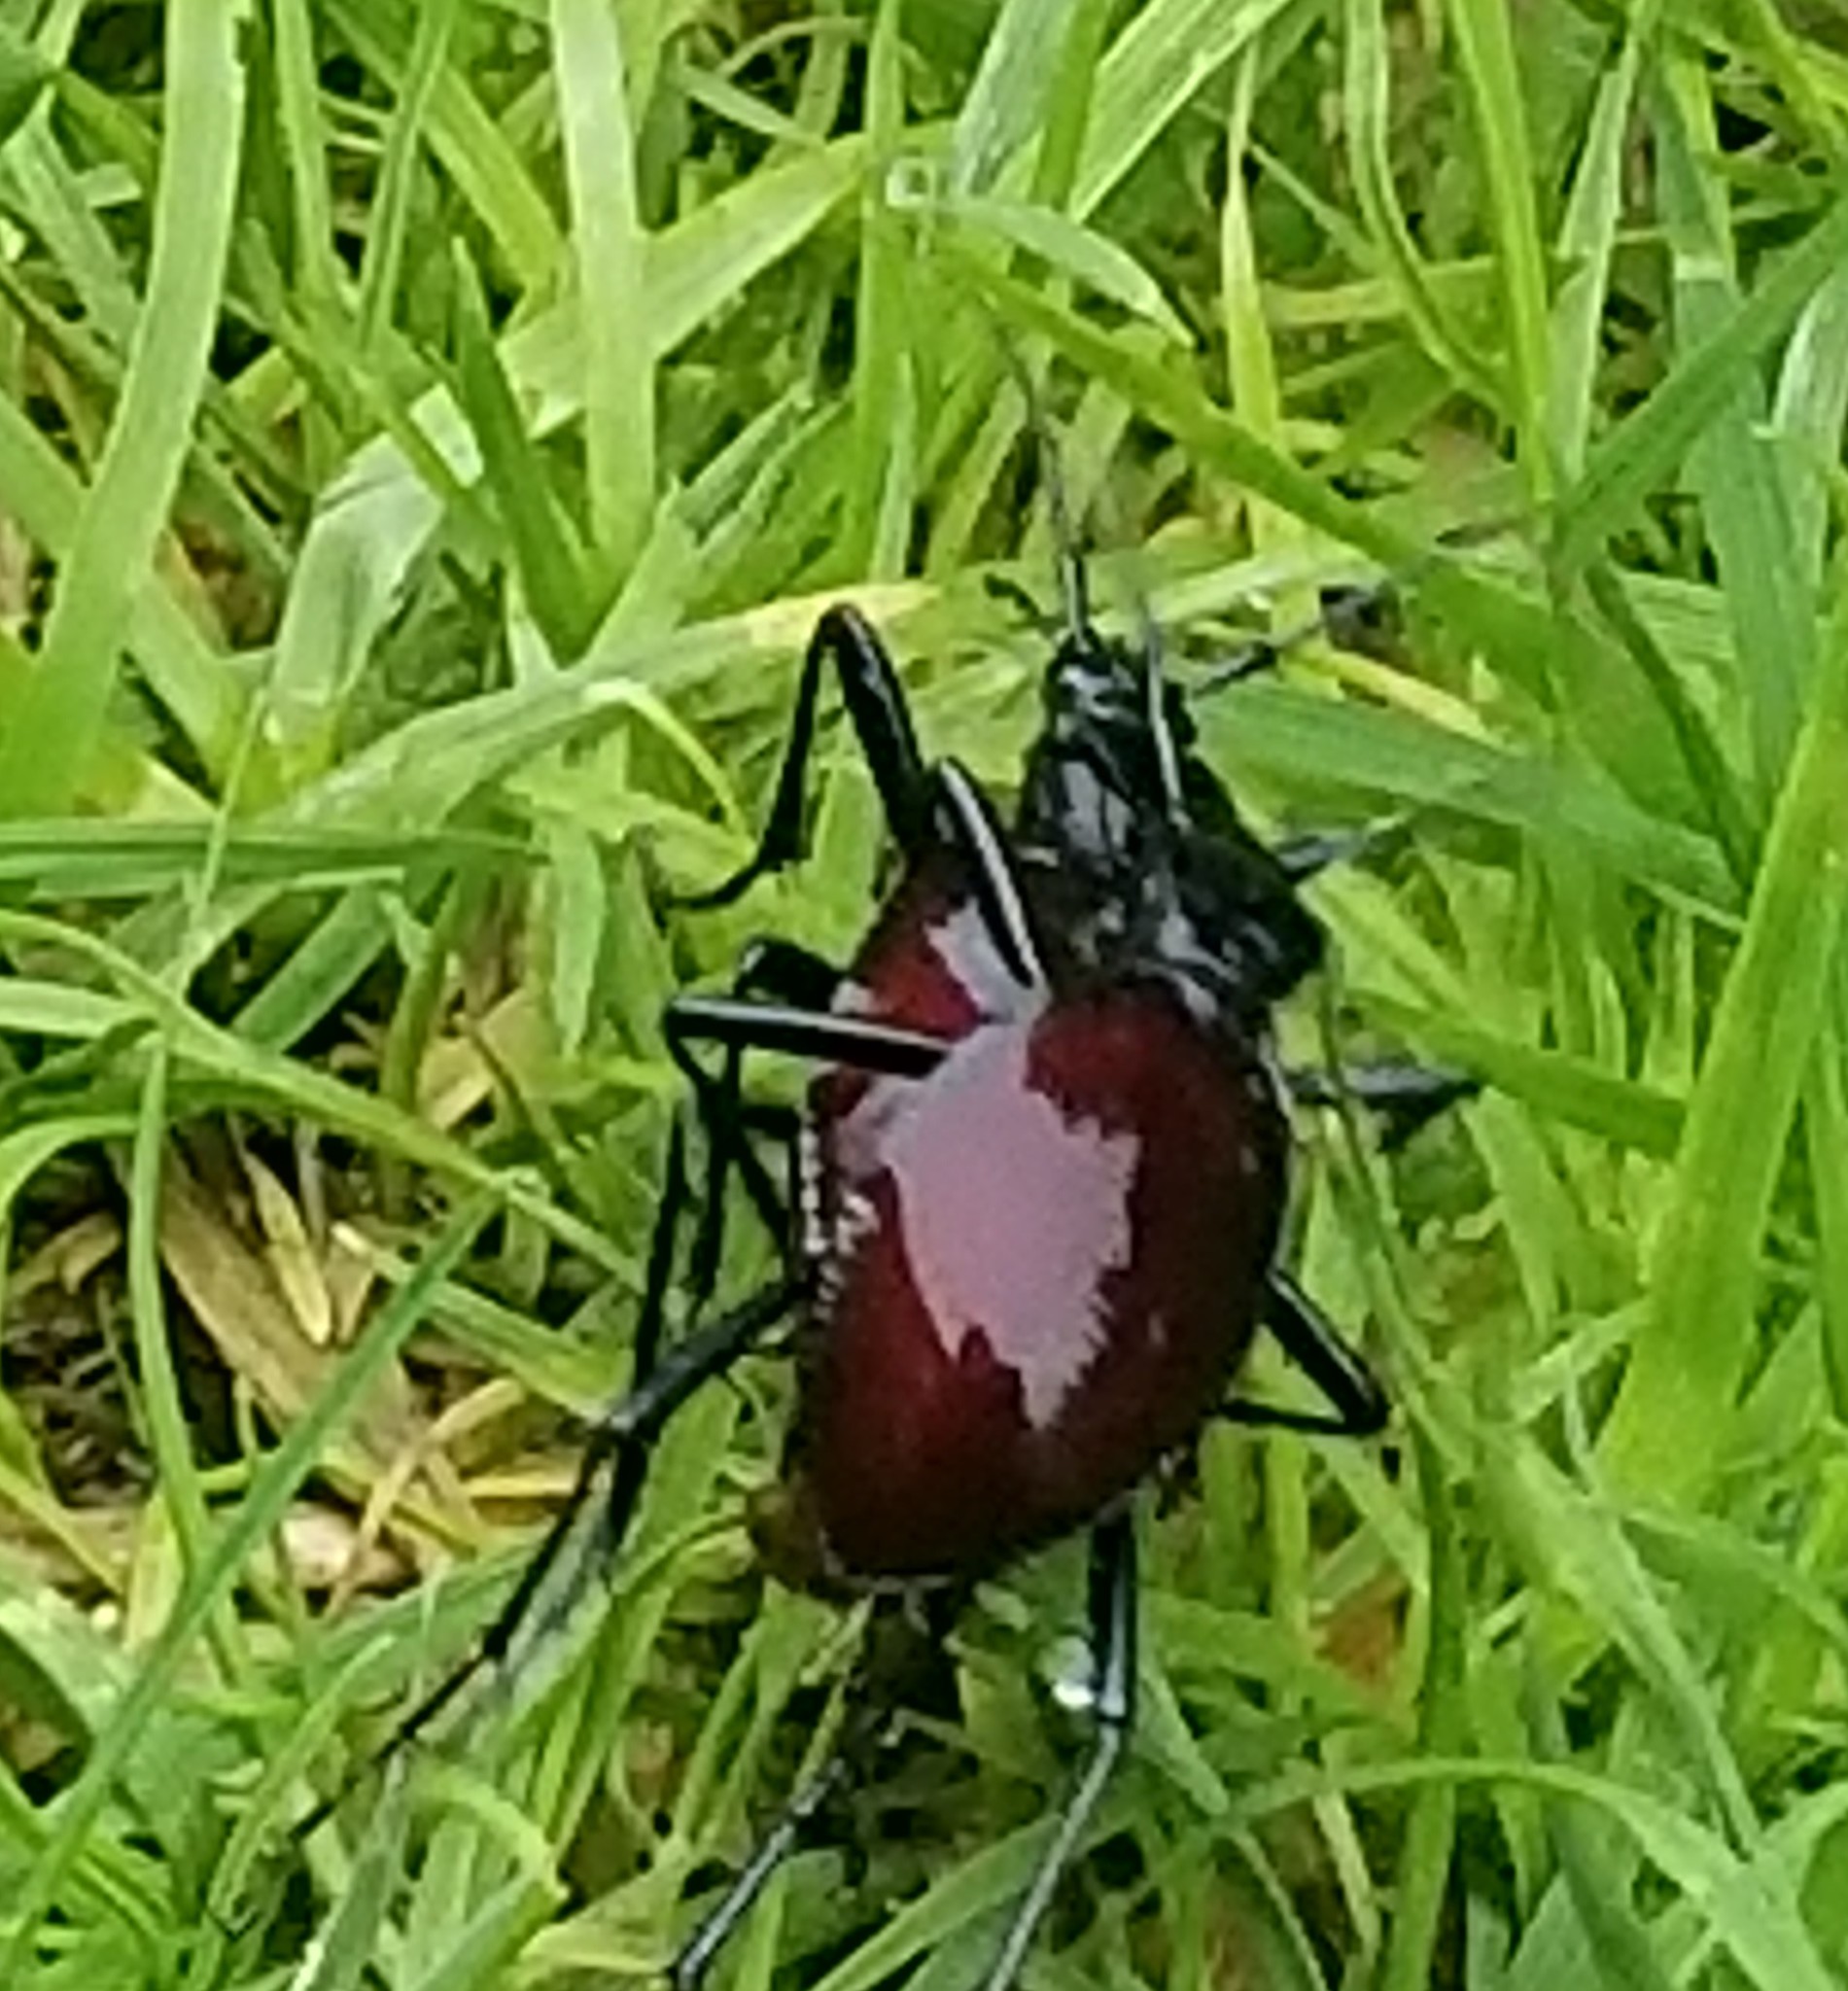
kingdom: Animalia
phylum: Arthropoda
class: Insecta
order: Coleoptera
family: Carabidae
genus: Scaphinotus
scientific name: Scaphinotus angusticollis
